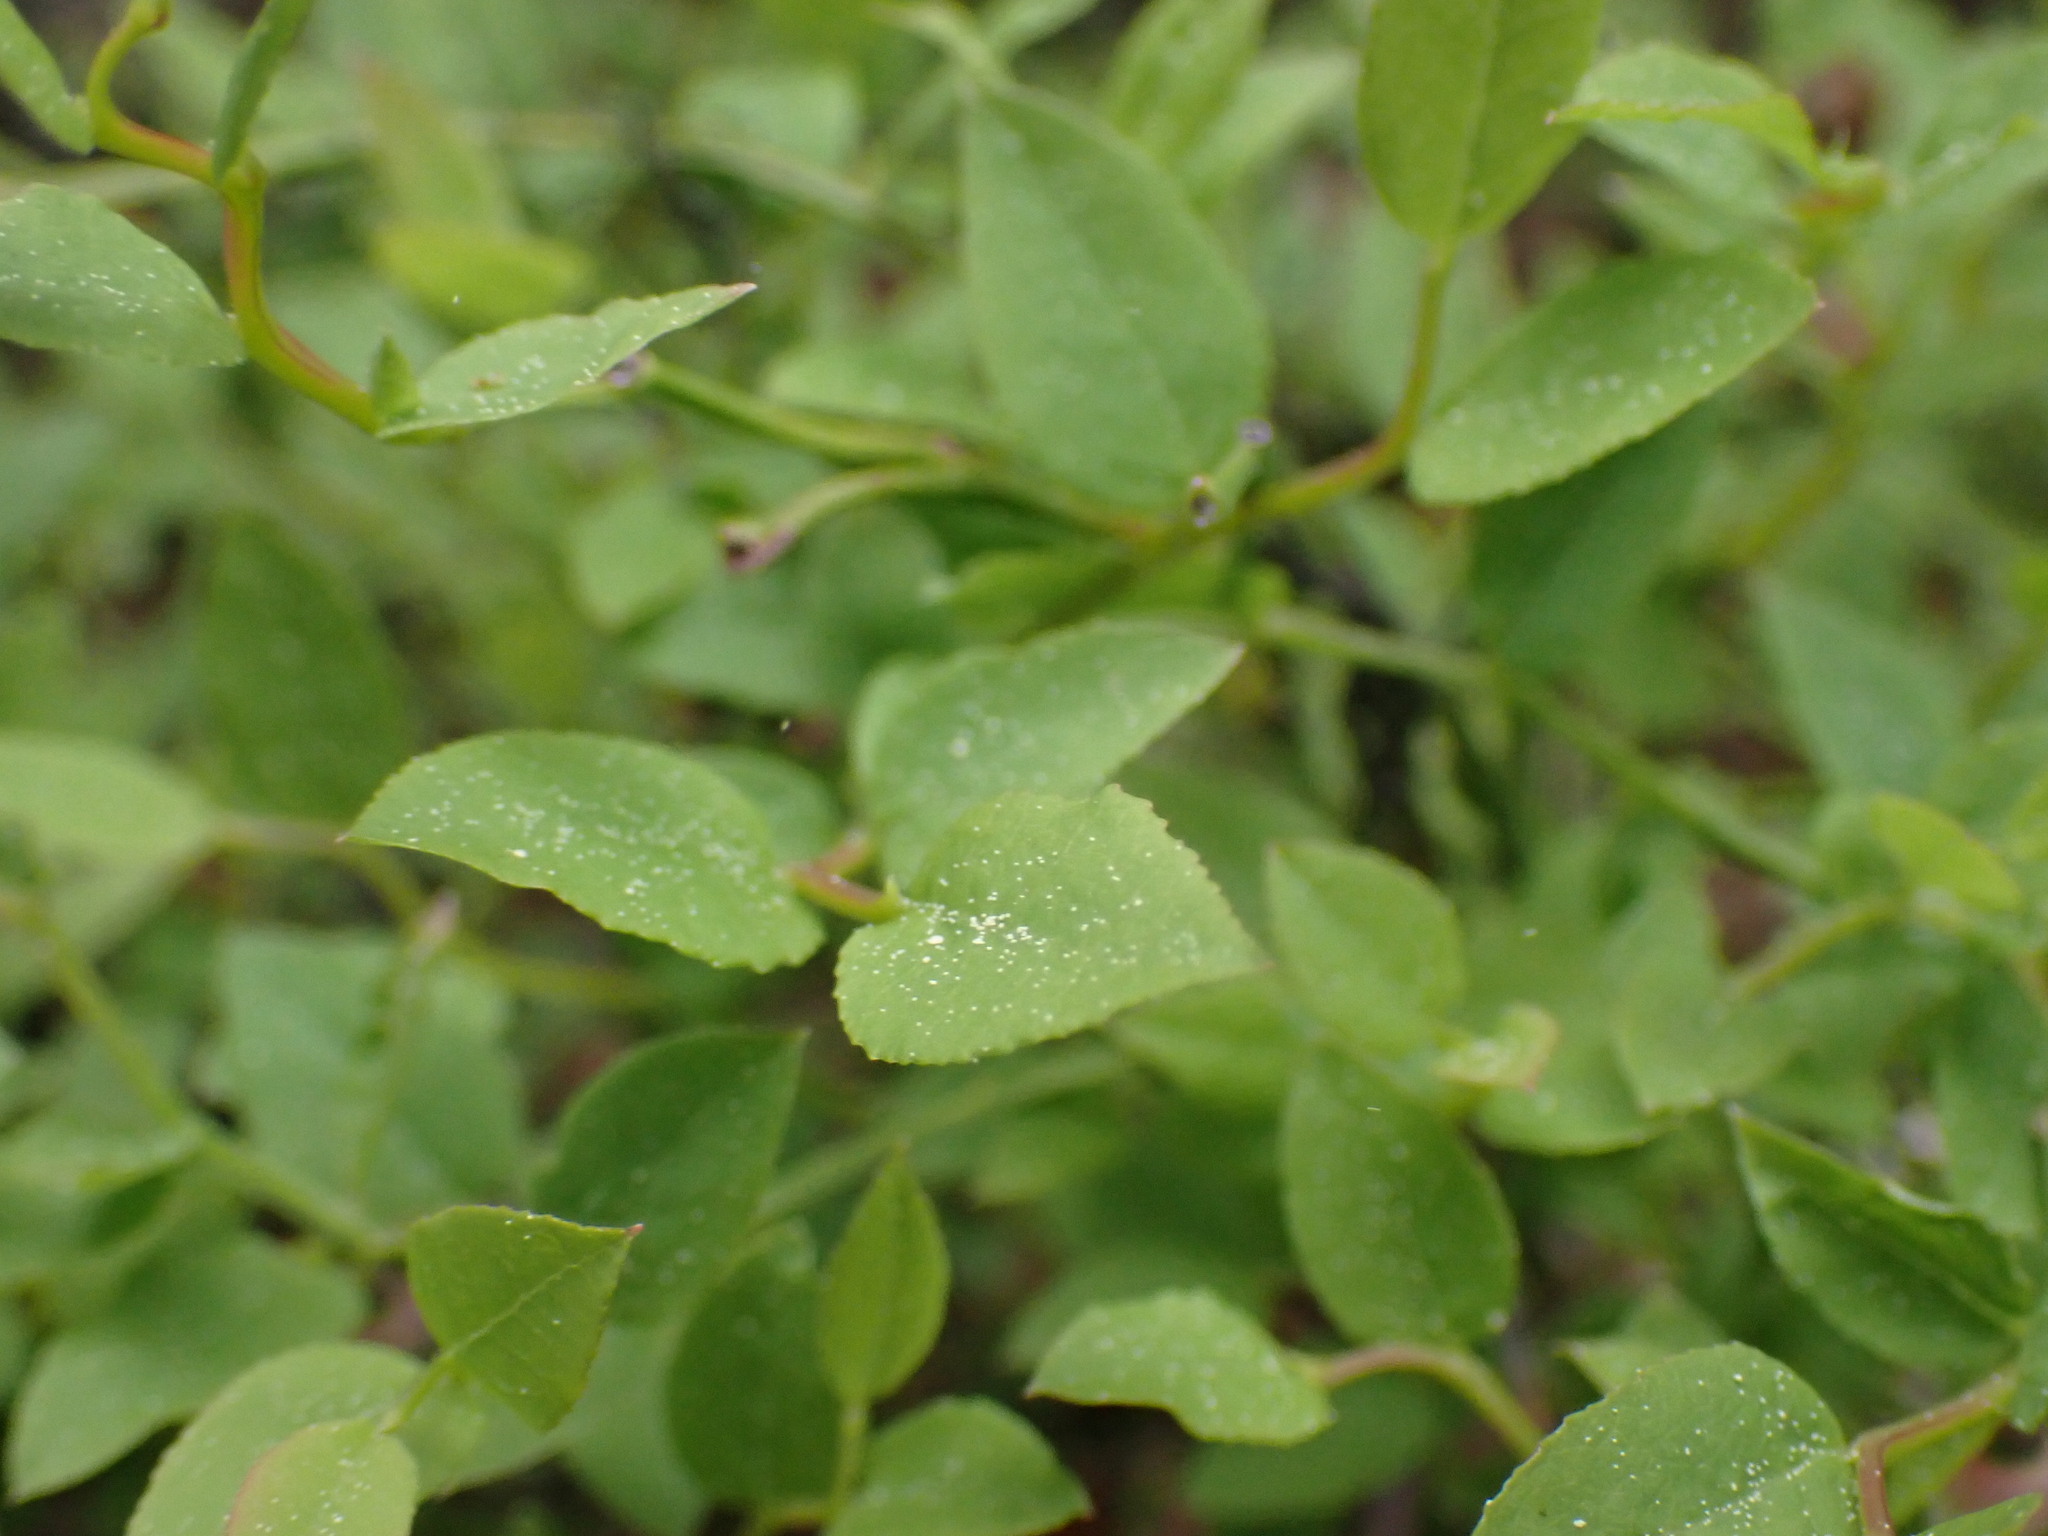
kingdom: Plantae
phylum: Tracheophyta
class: Magnoliopsida
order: Ericales
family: Ericaceae
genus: Vaccinium
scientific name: Vaccinium cespitosum
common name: Dwarf bilberry
